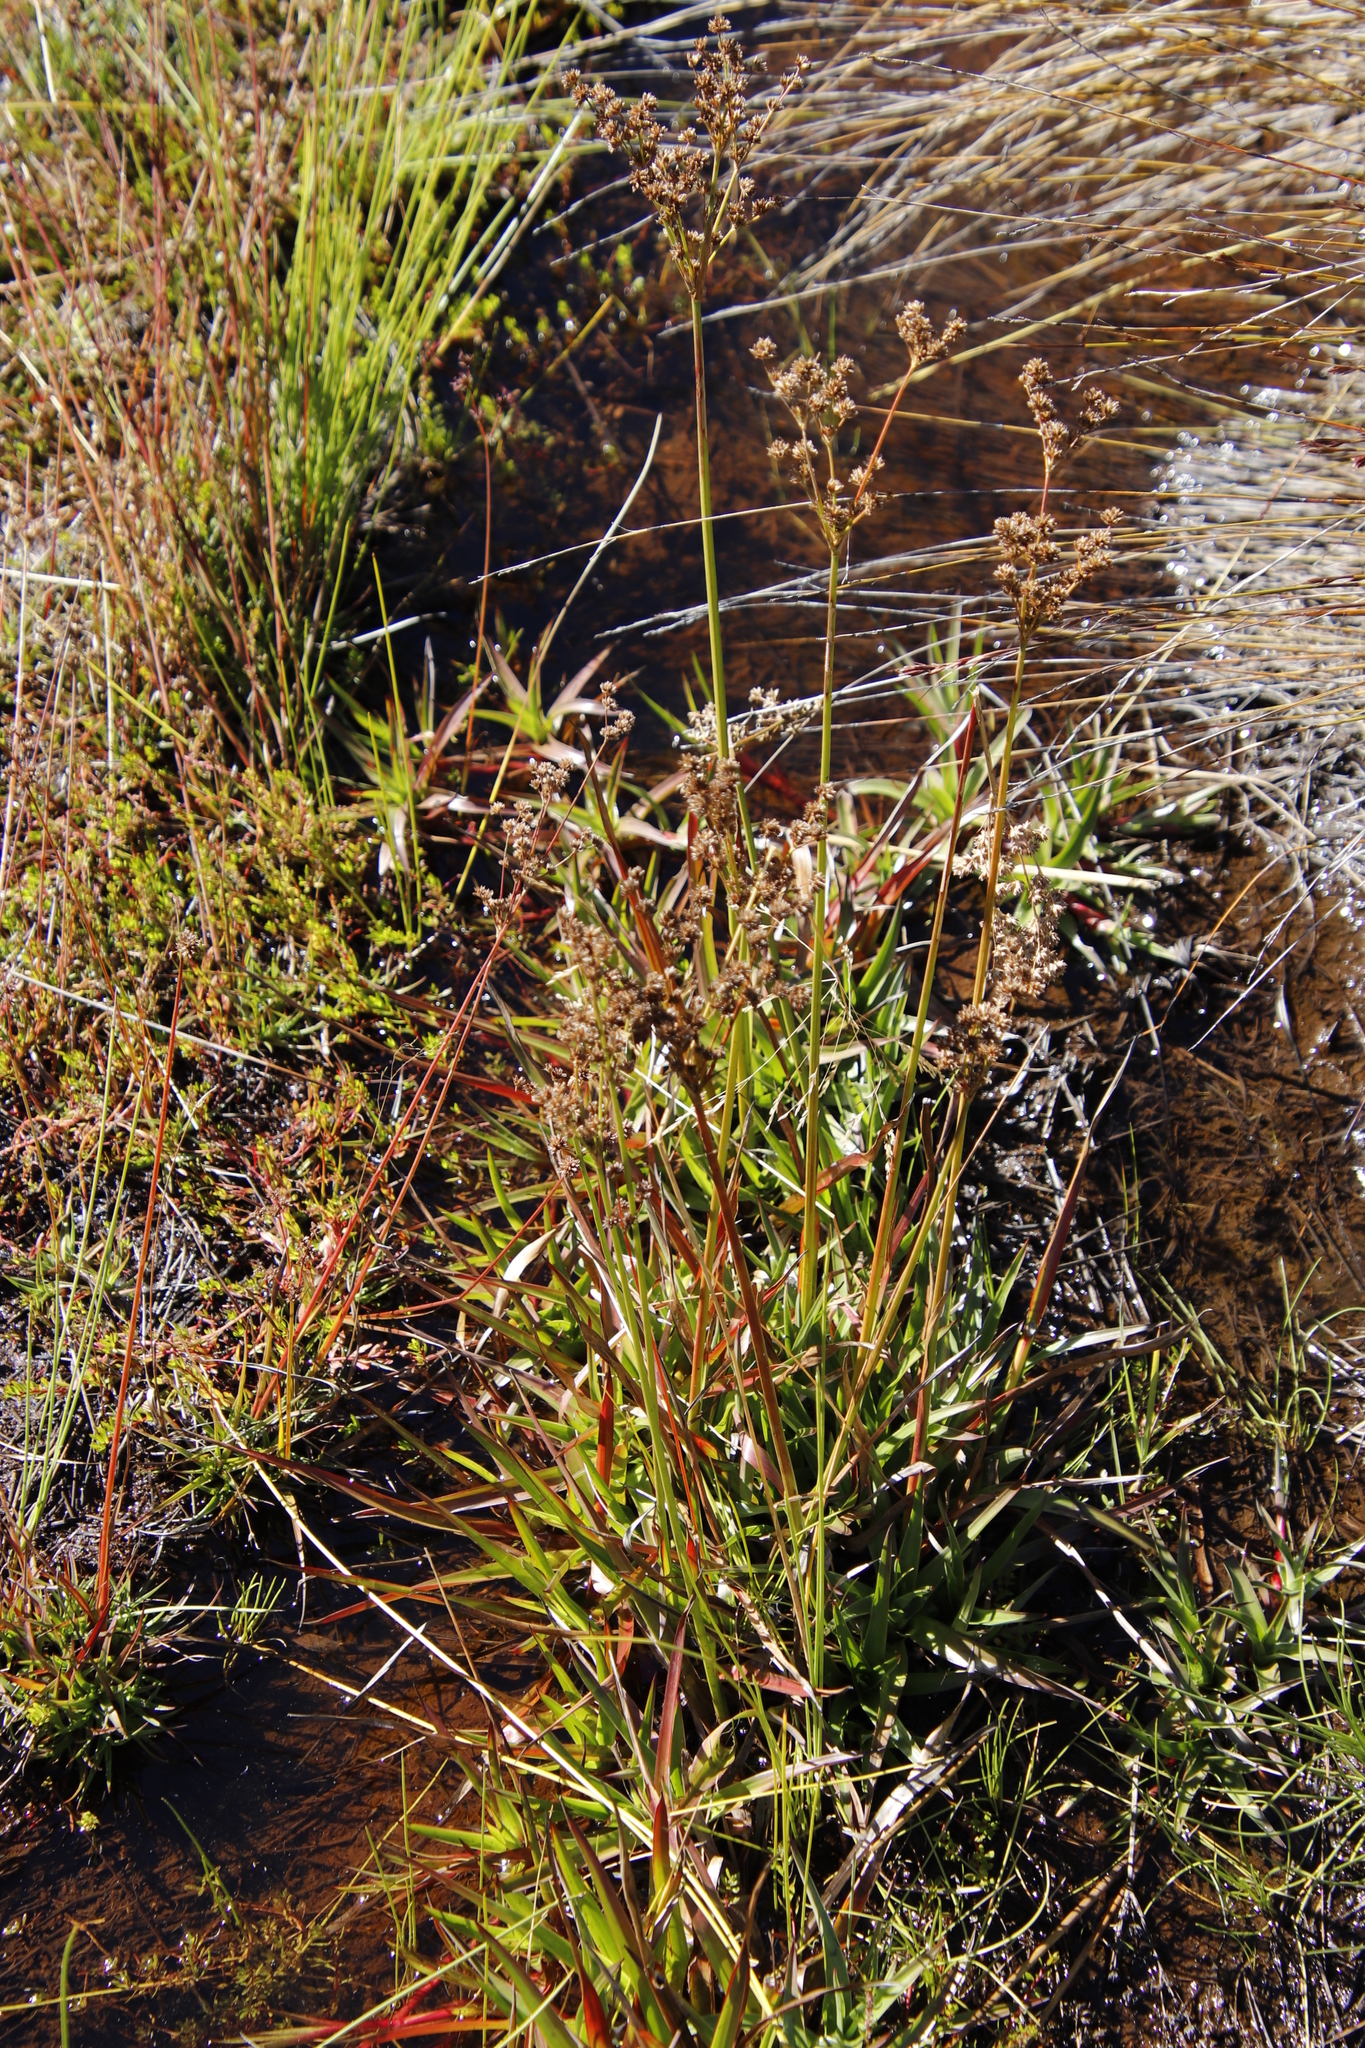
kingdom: Plantae
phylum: Tracheophyta
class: Liliopsida
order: Poales
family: Juncaceae
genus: Juncus
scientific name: Juncus lomatophyllus
